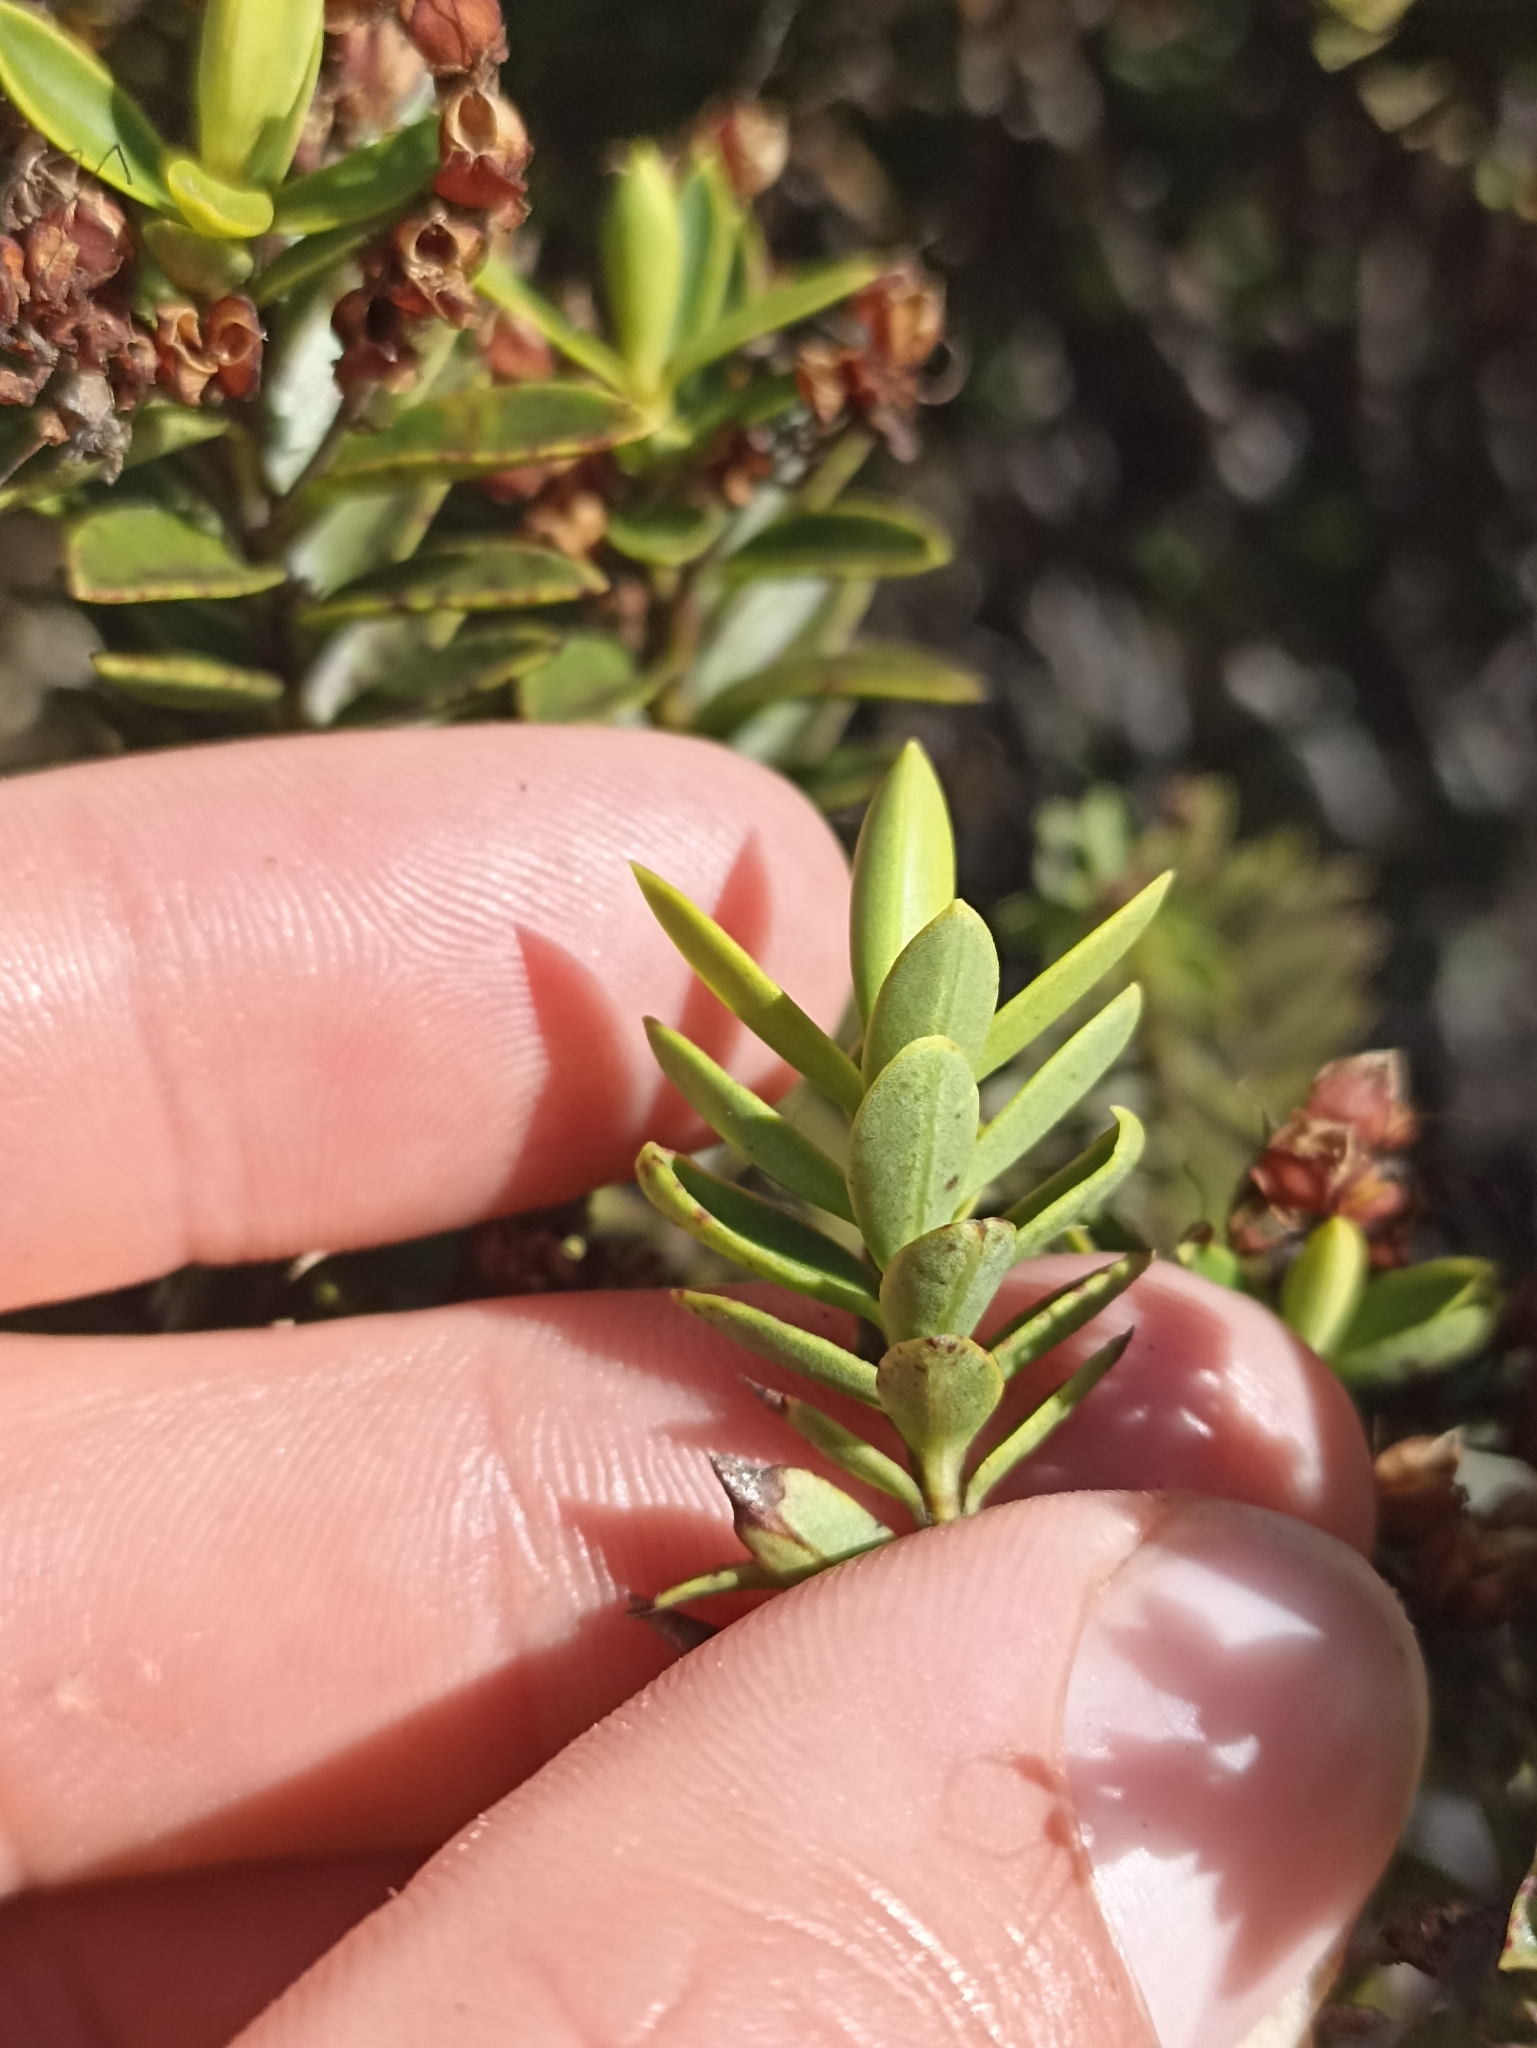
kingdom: Plantae
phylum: Tracheophyta
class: Magnoliopsida
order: Lamiales
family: Plantaginaceae
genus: Veronica
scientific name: Veronica subfulvida
